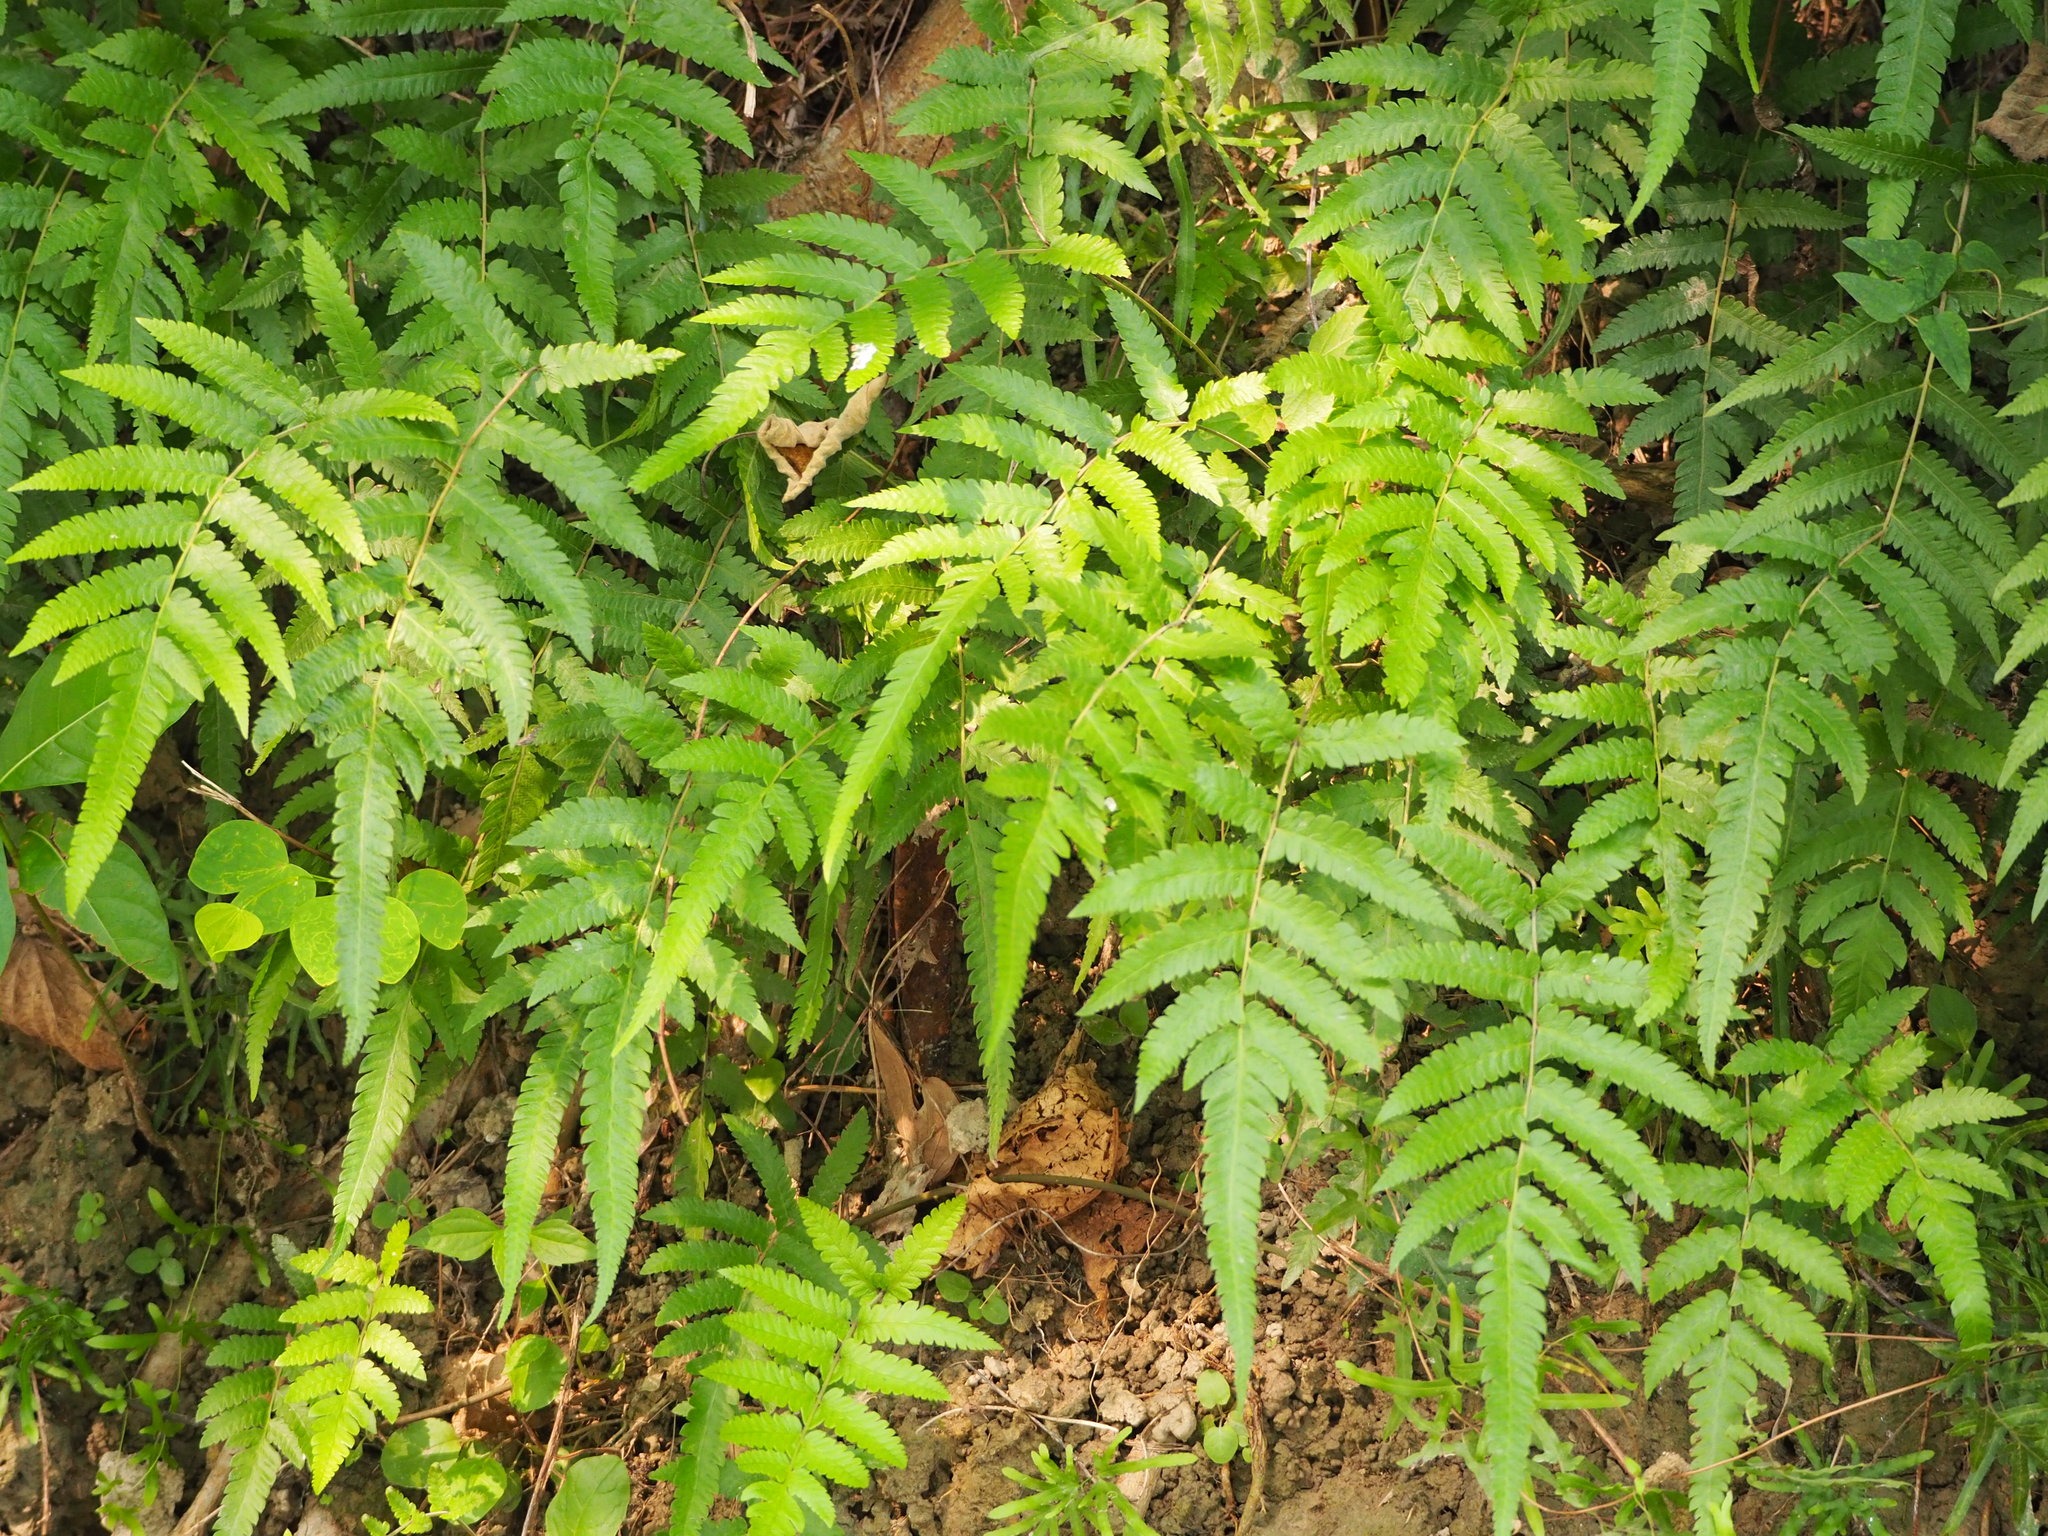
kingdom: Plantae
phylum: Tracheophyta
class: Polypodiopsida
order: Polypodiales
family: Thelypteridaceae
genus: Christella
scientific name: Christella acuminata
